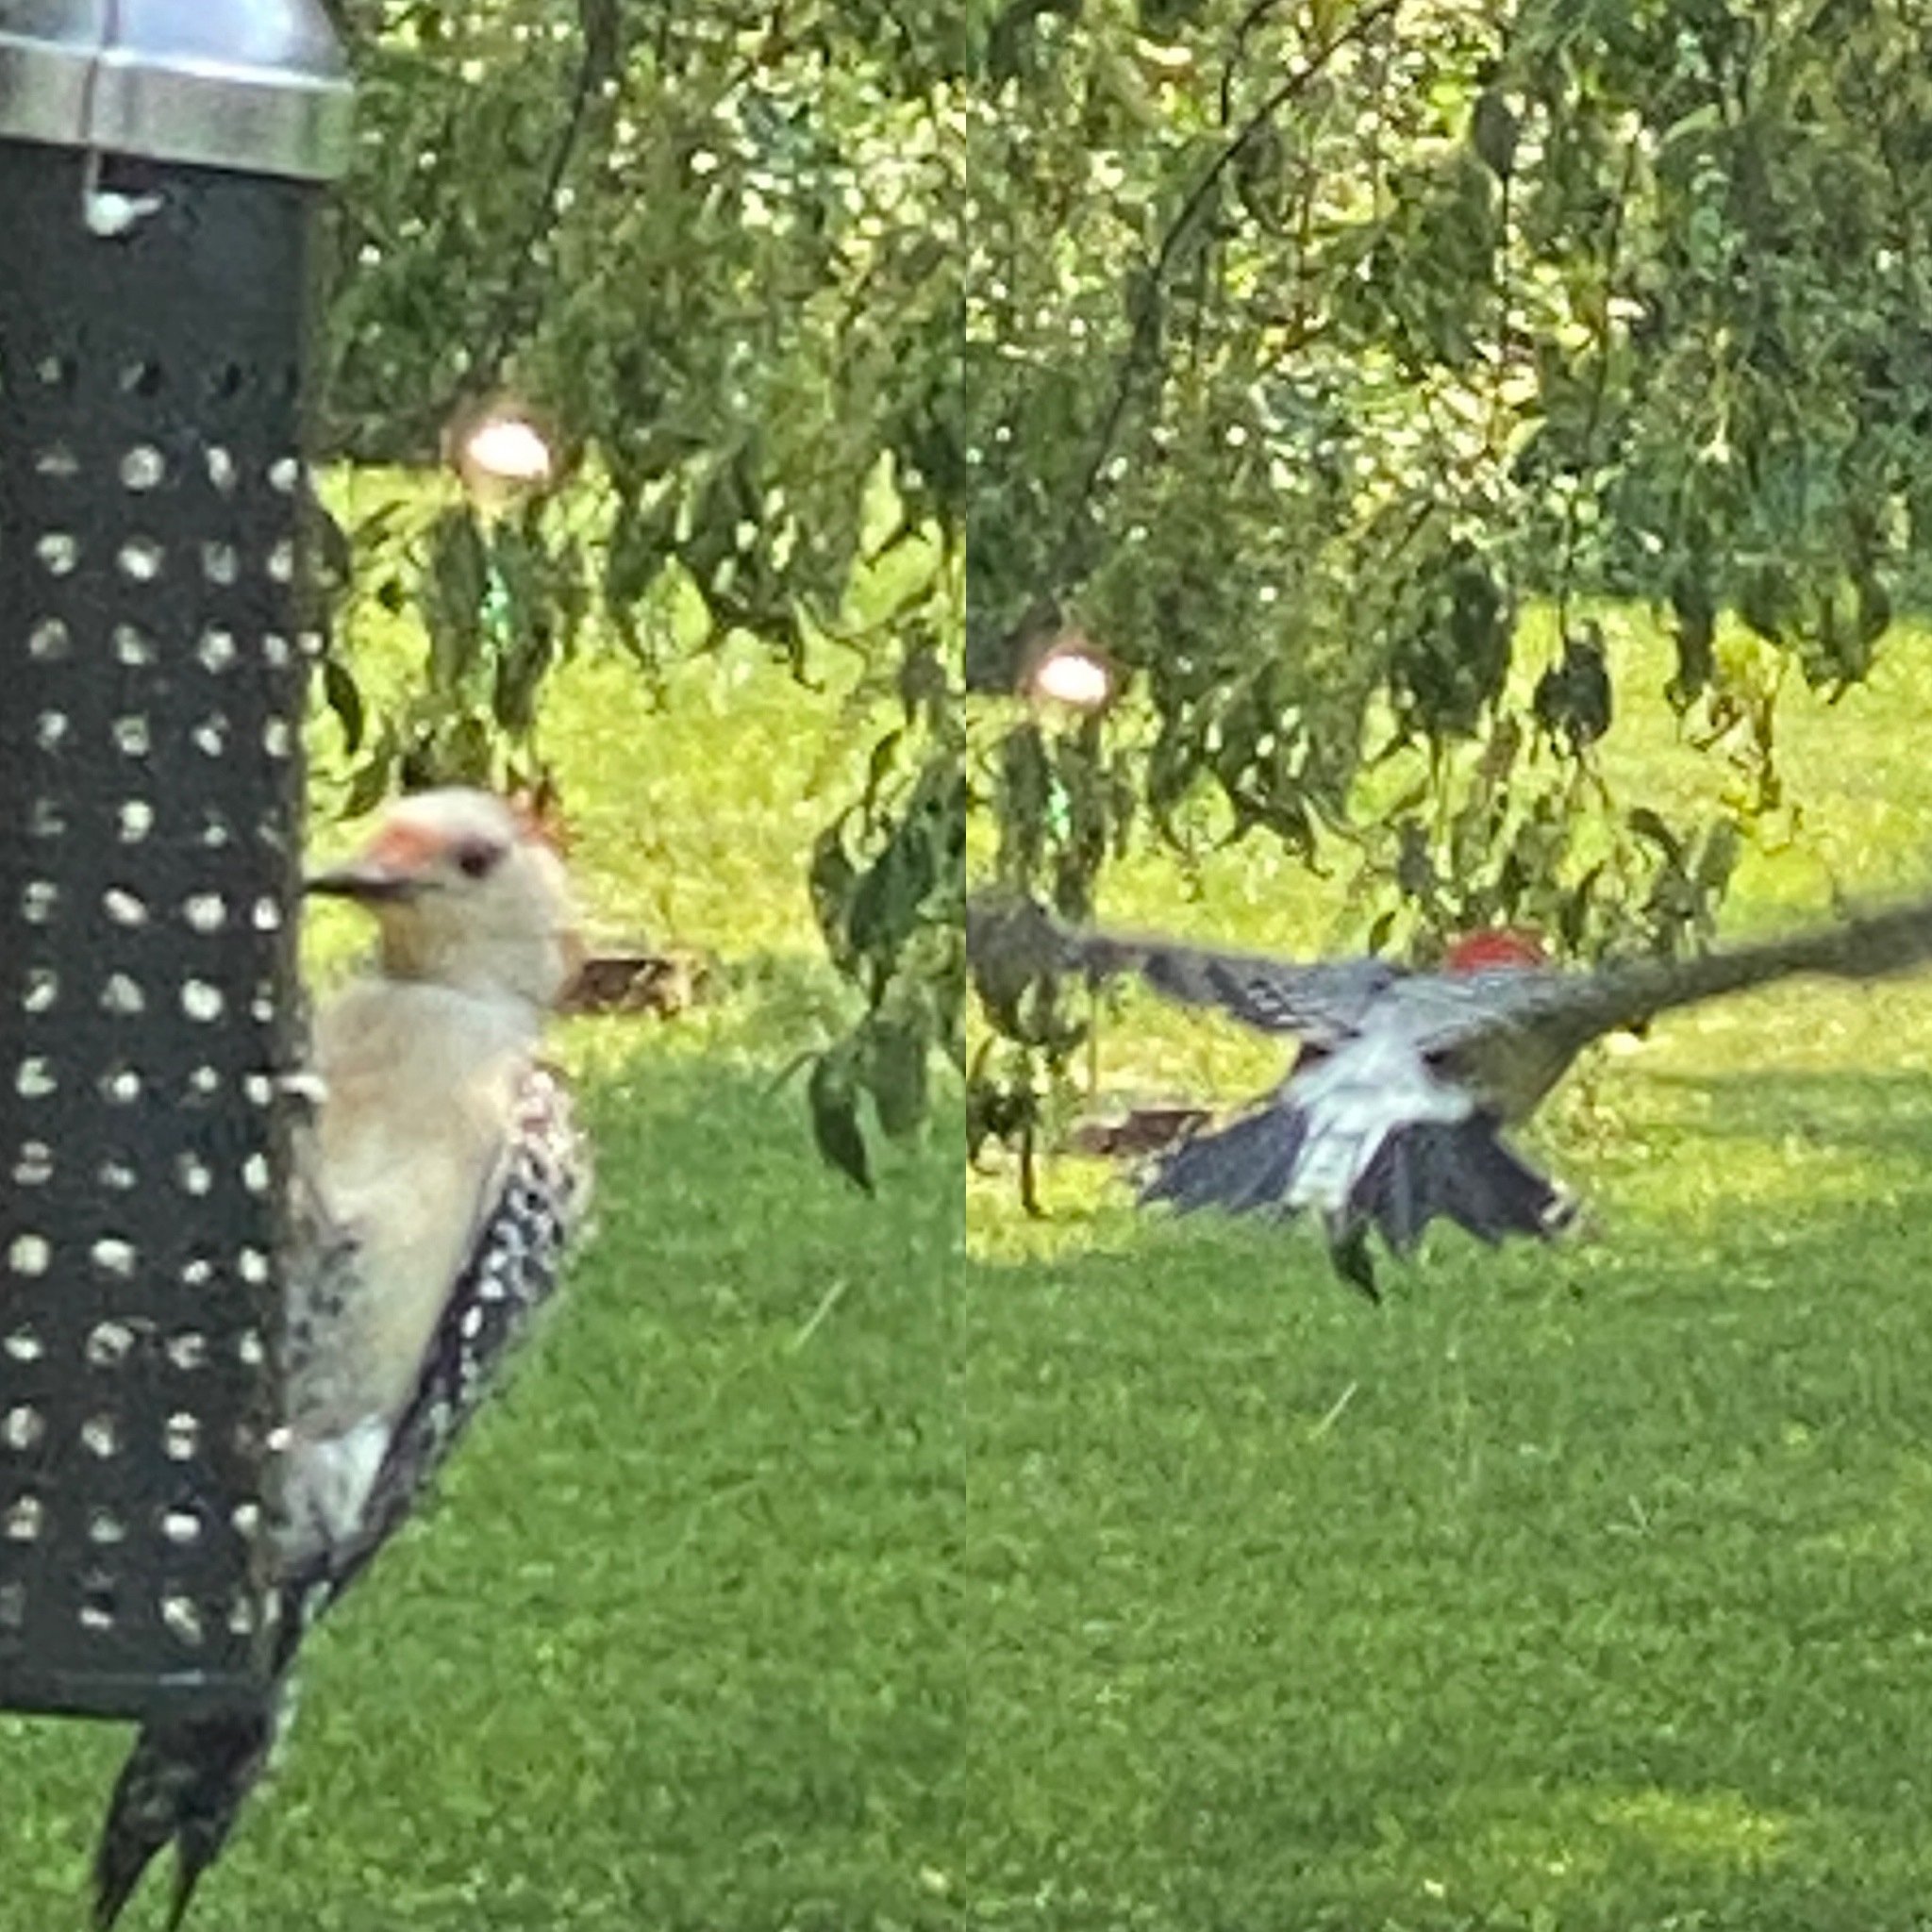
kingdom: Animalia
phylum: Chordata
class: Aves
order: Piciformes
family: Picidae
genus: Melanerpes
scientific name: Melanerpes carolinus
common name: Red-bellied woodpecker
